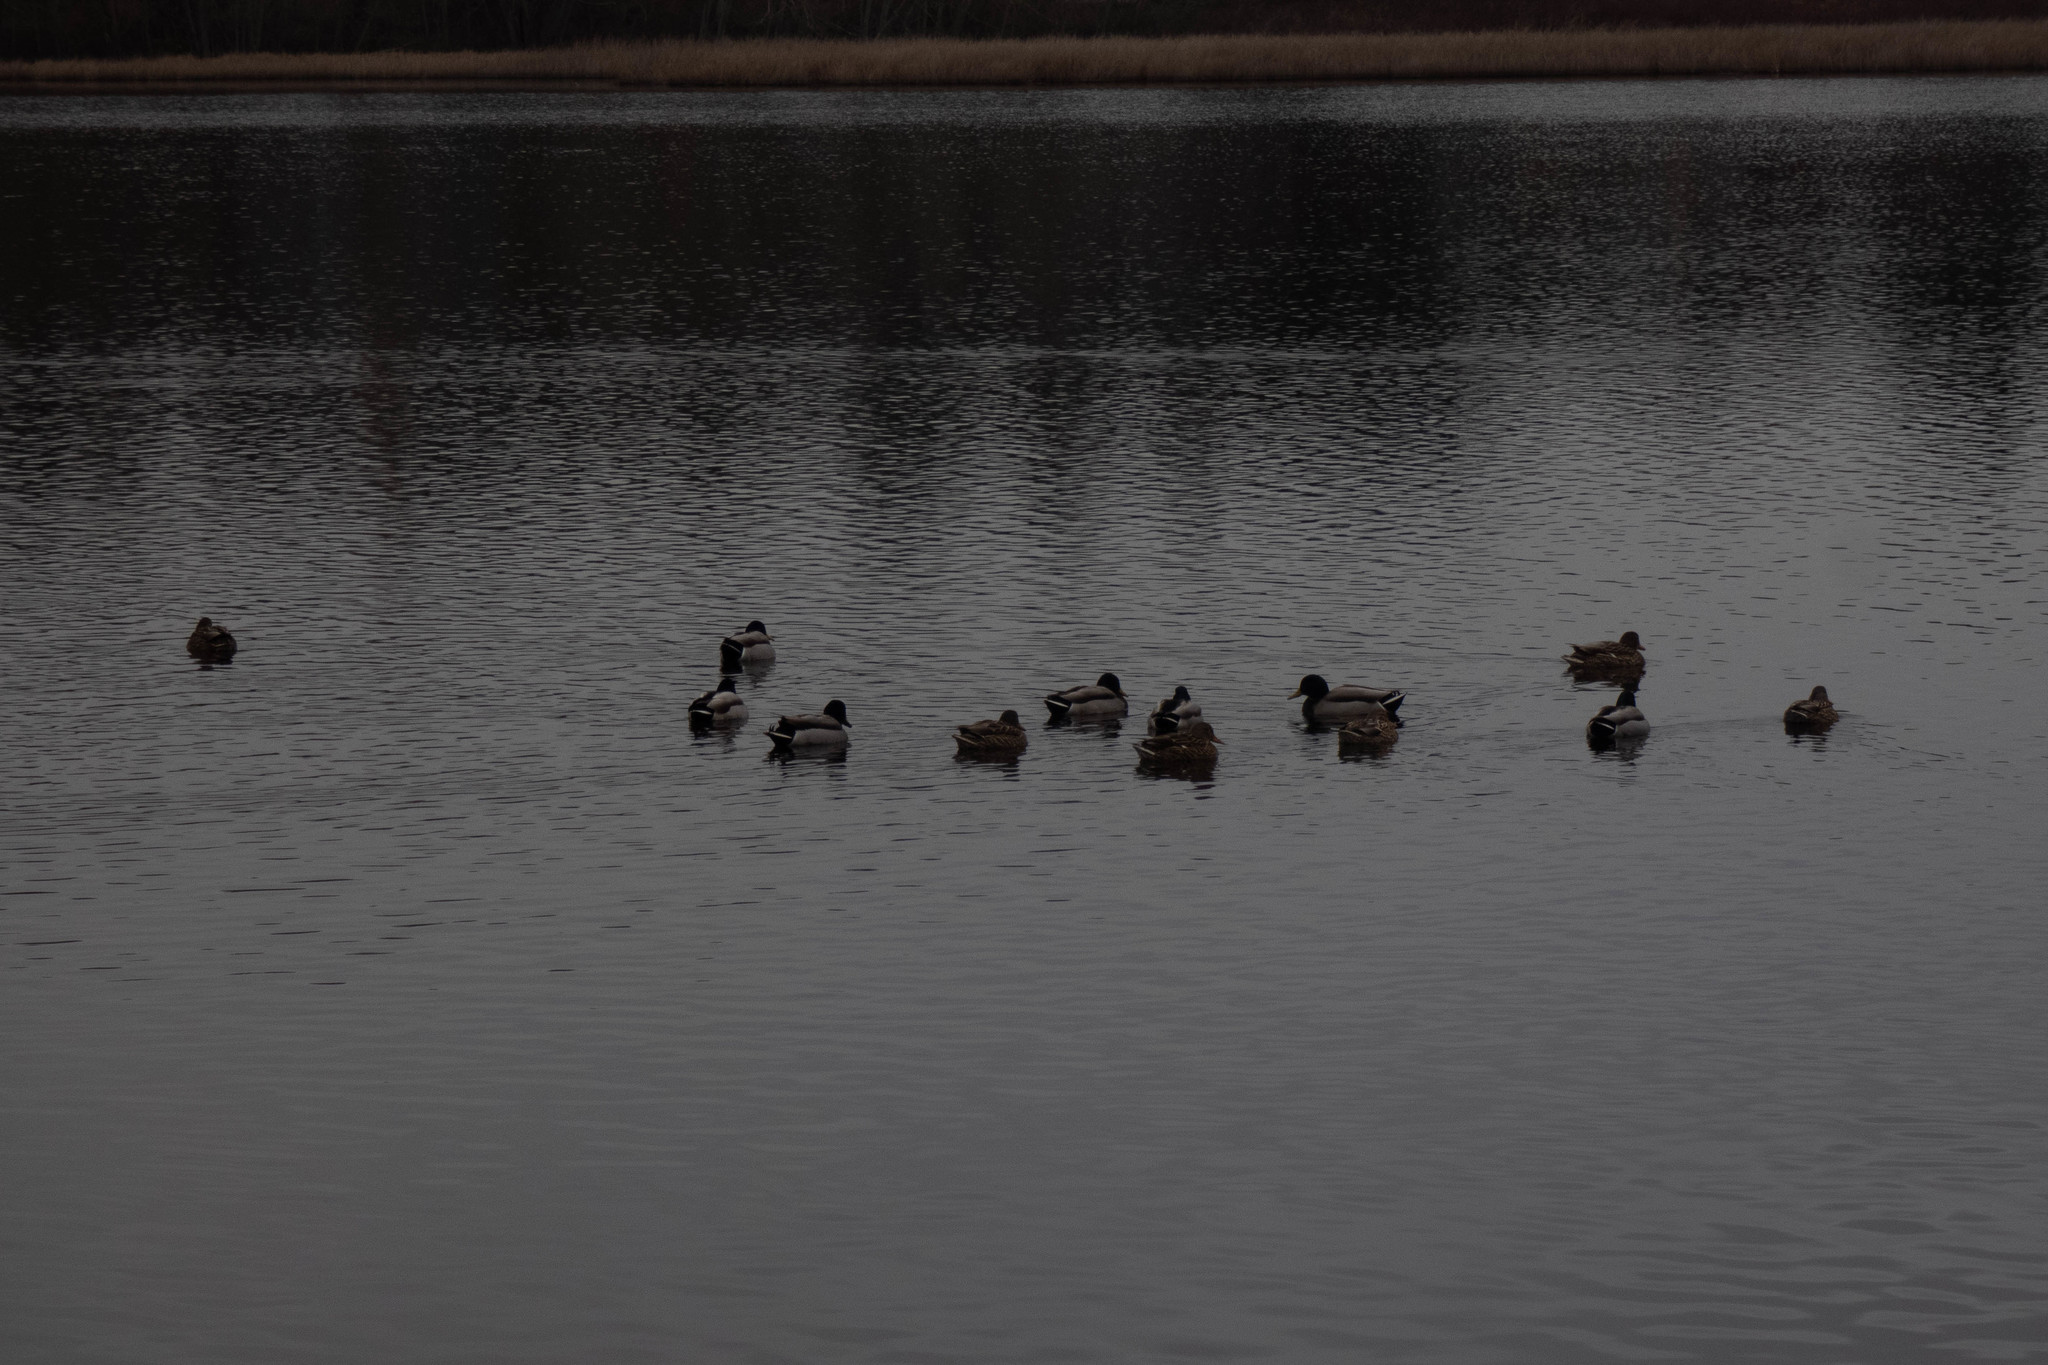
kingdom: Animalia
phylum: Chordata
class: Aves
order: Anseriformes
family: Anatidae
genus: Anas
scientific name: Anas platyrhynchos
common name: Mallard
